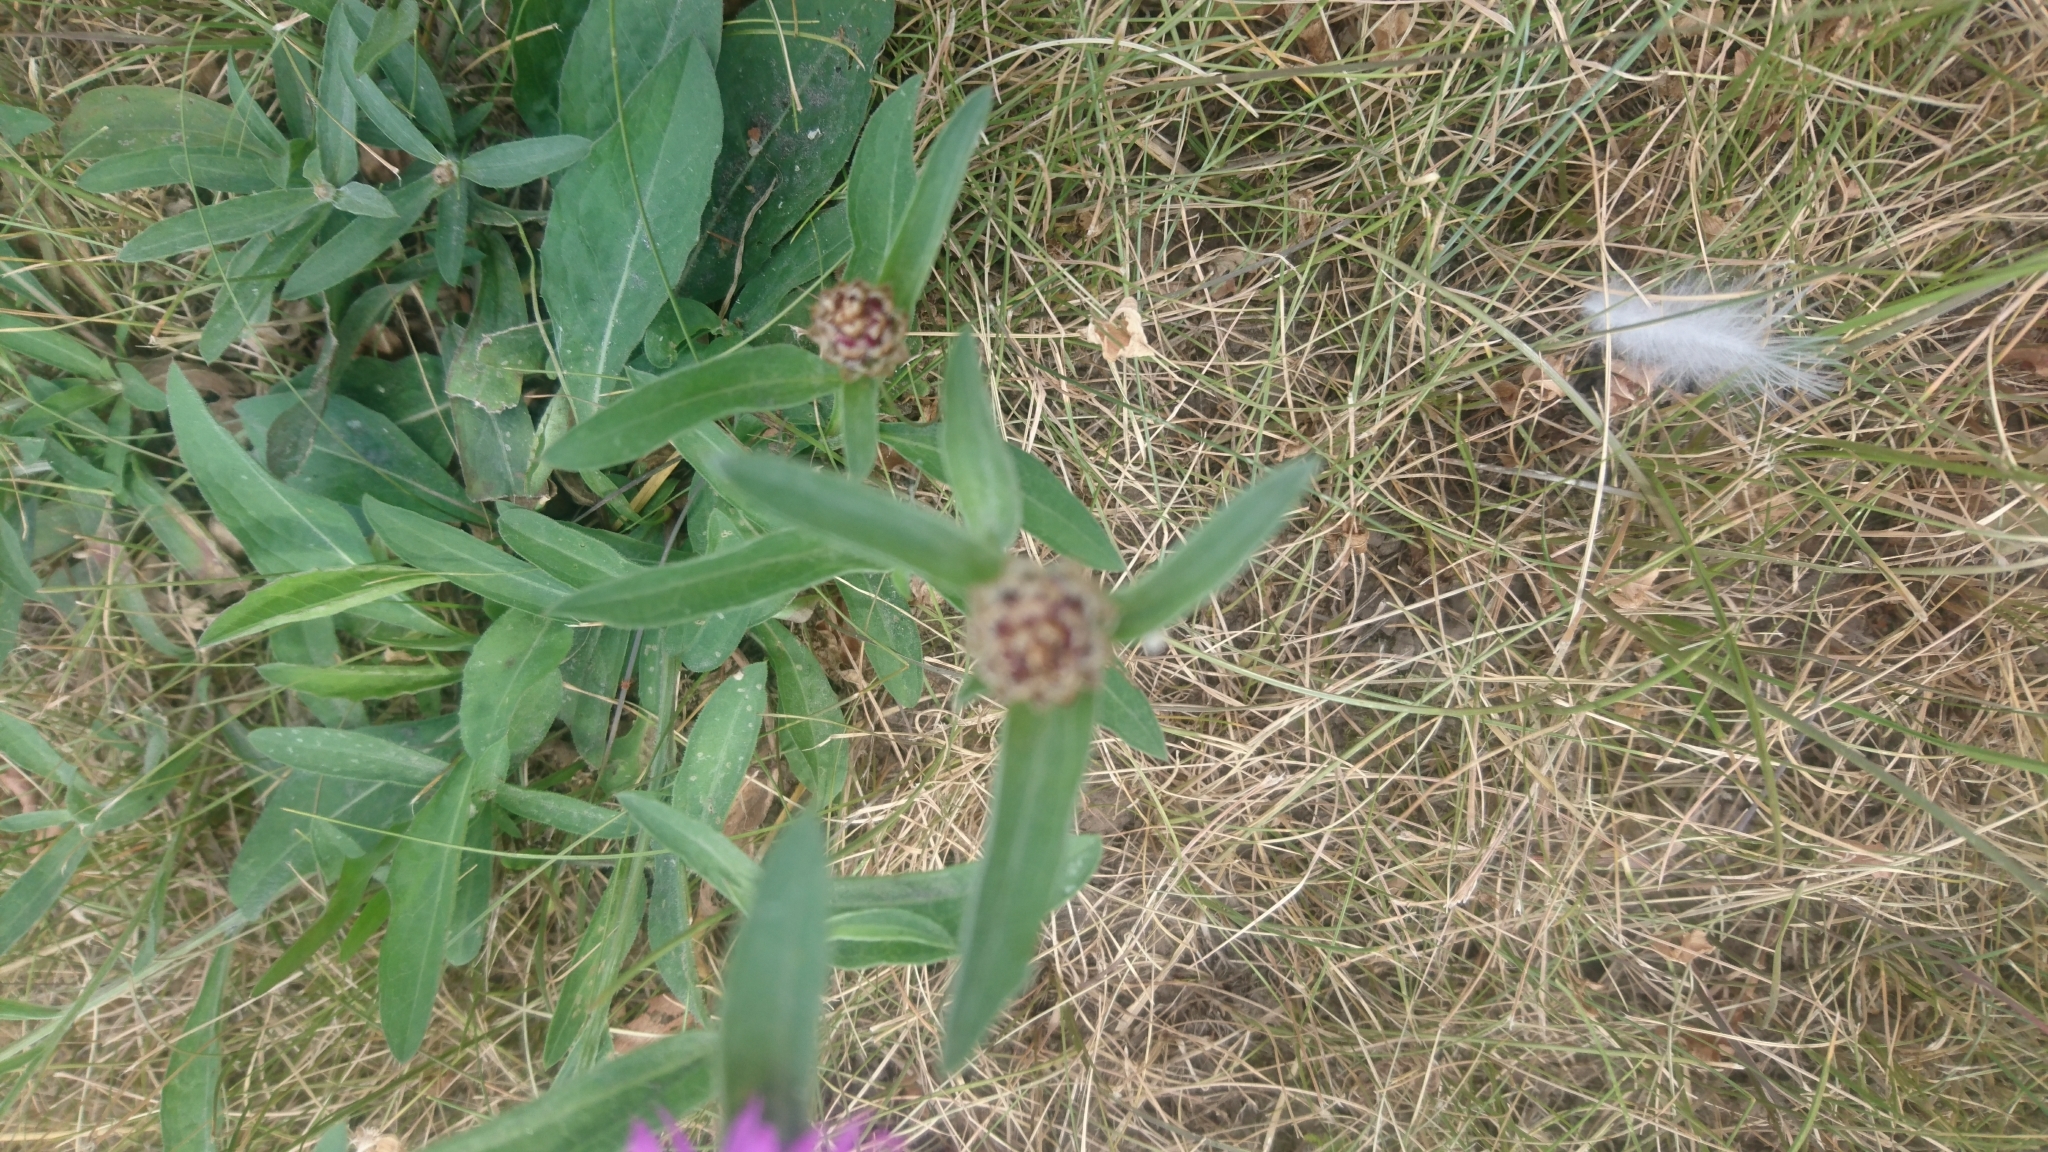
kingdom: Plantae
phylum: Tracheophyta
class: Magnoliopsida
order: Asterales
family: Asteraceae
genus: Centaurea
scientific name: Centaurea jacea
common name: Brown knapweed
